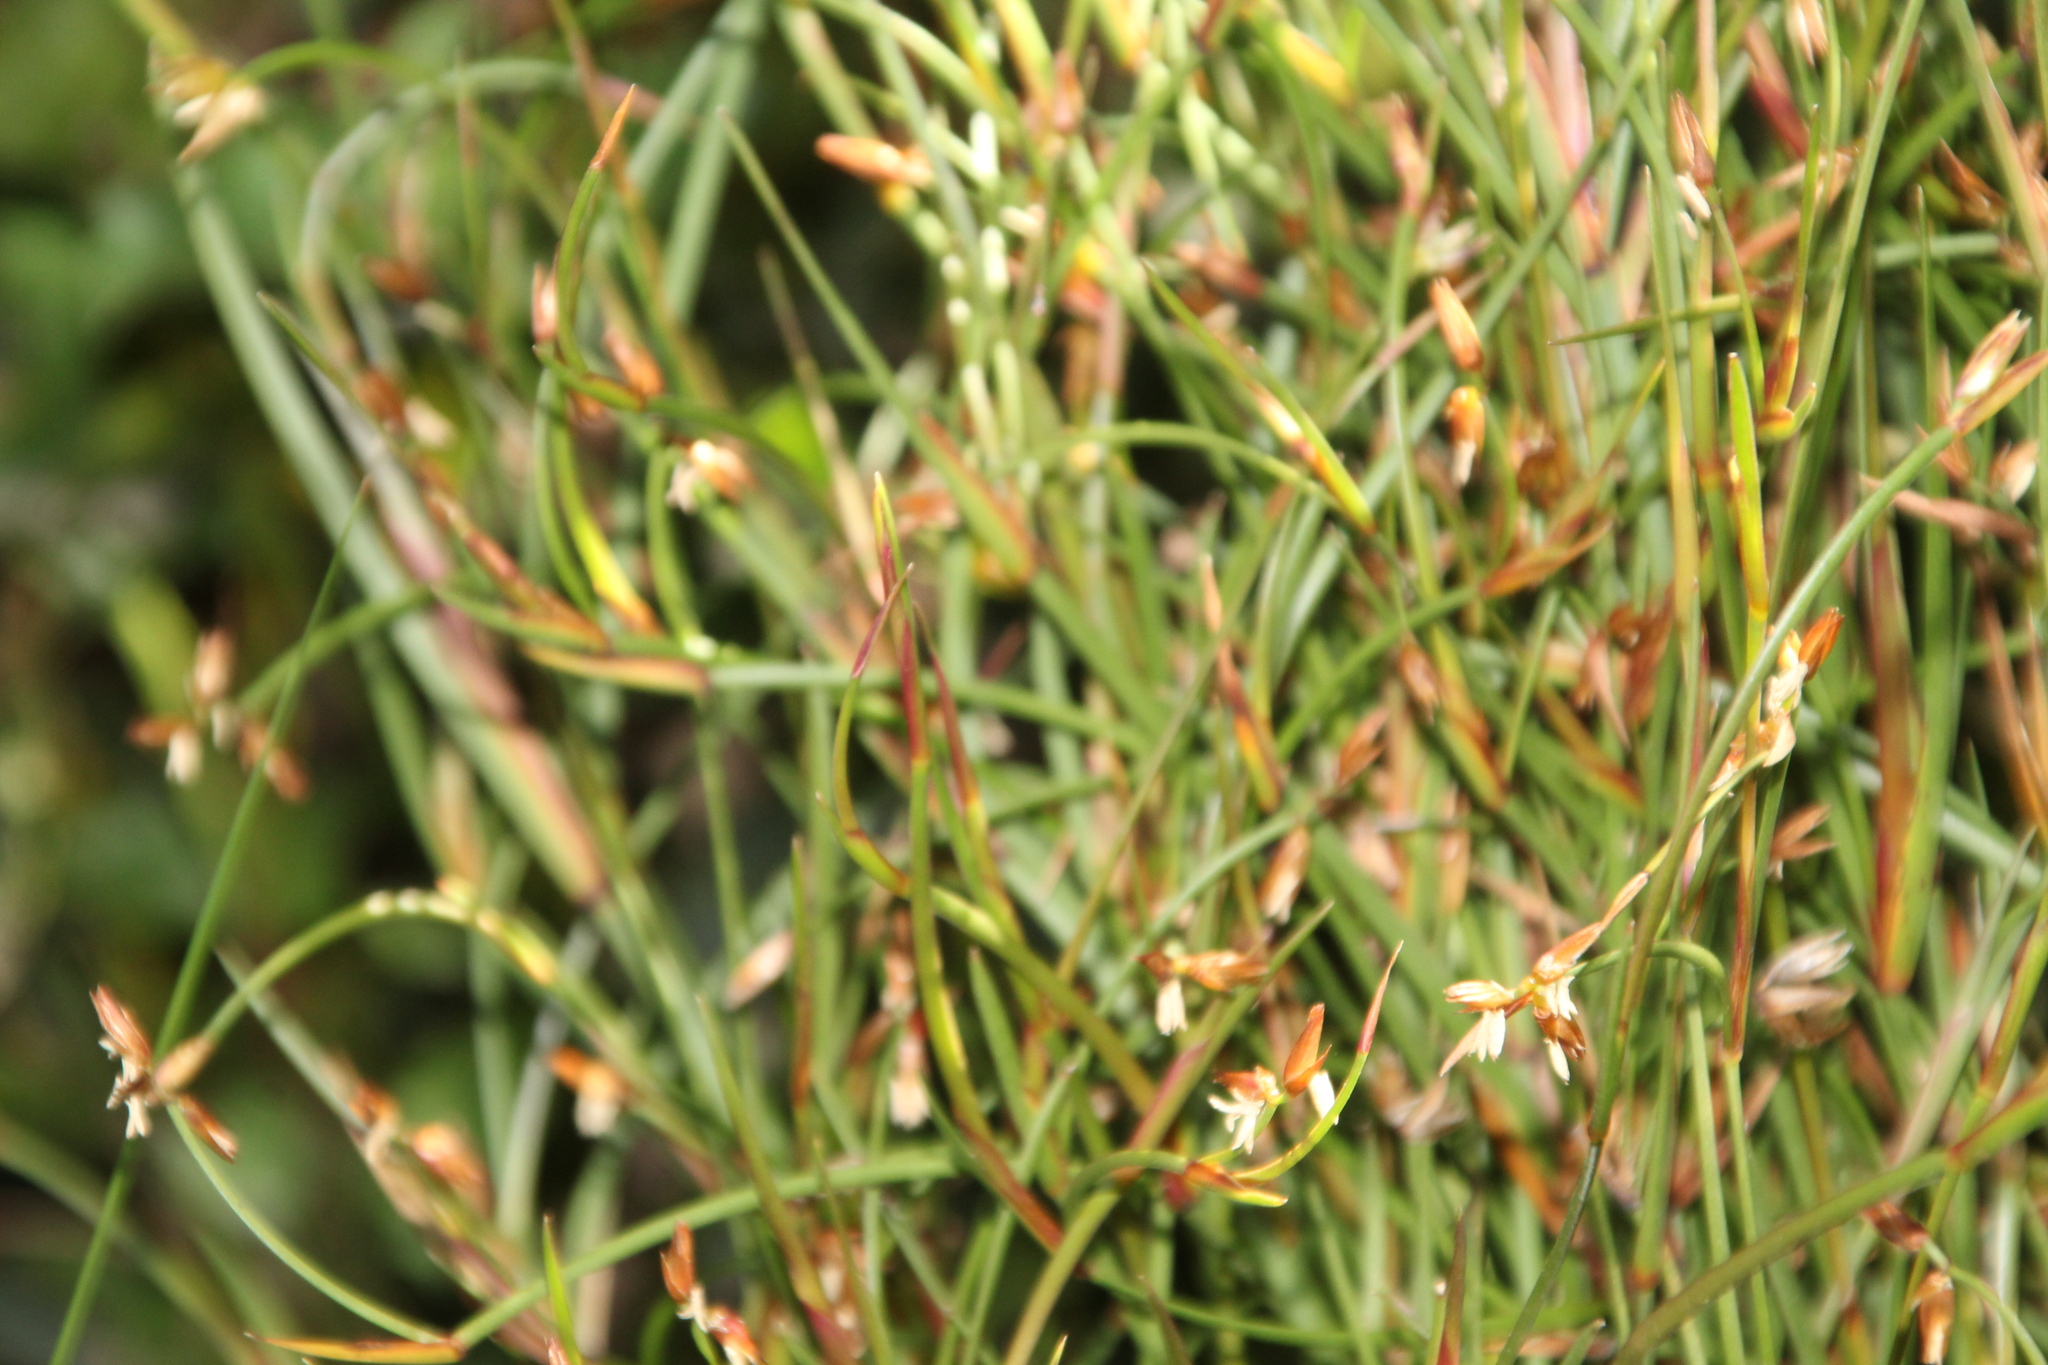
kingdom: Plantae
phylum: Tracheophyta
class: Liliopsida
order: Poales
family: Restionaceae
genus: Anarthria
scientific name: Anarthria prolifera
